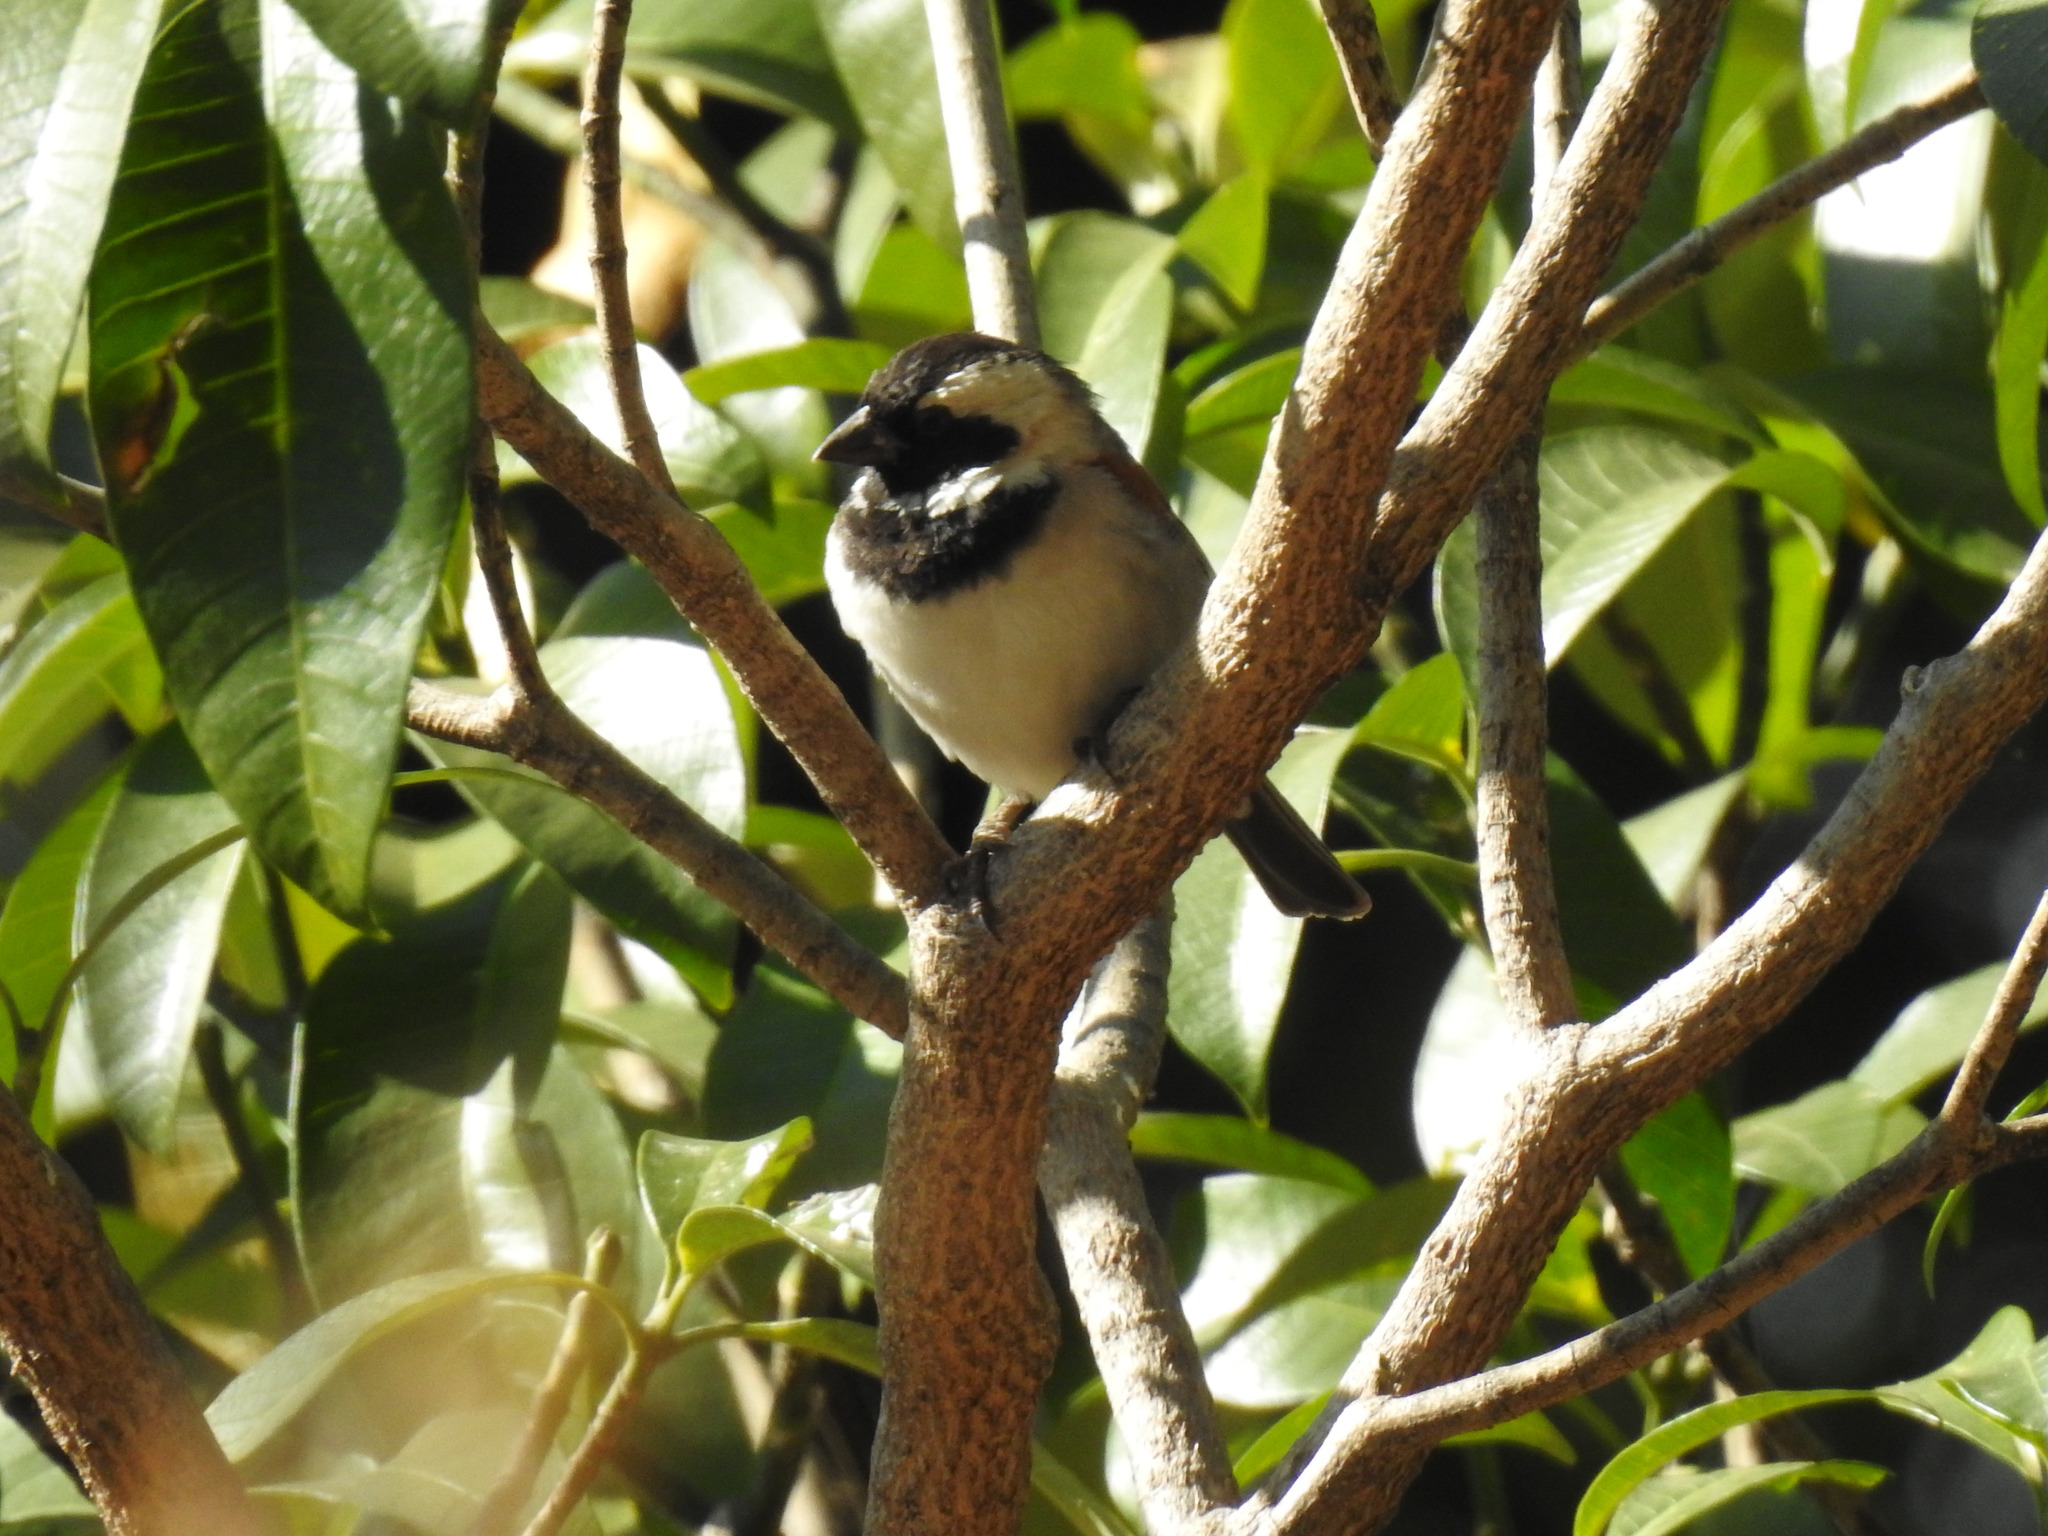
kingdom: Animalia
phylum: Chordata
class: Aves
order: Passeriformes
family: Passeridae
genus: Passer
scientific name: Passer melanurus
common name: Cape sparrow
